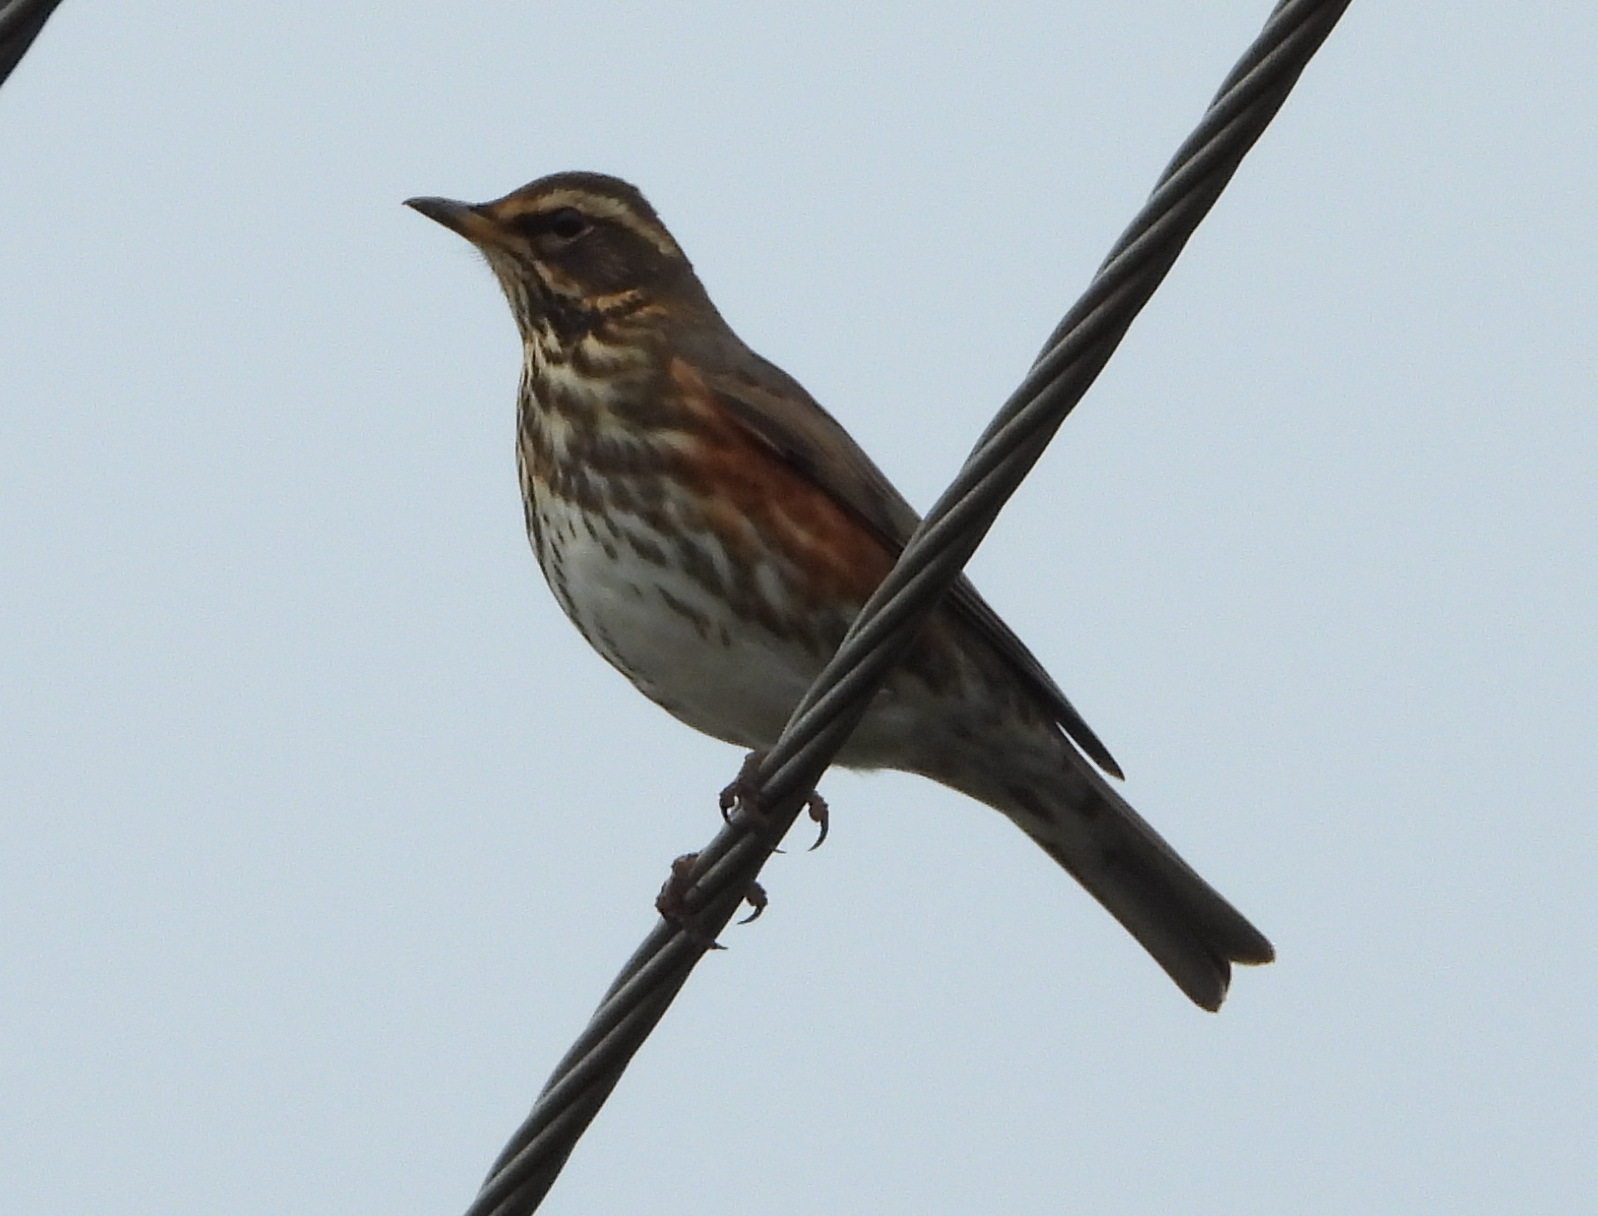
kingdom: Animalia
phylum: Chordata
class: Aves
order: Passeriformes
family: Turdidae
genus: Turdus
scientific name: Turdus iliacus
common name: Redwing
